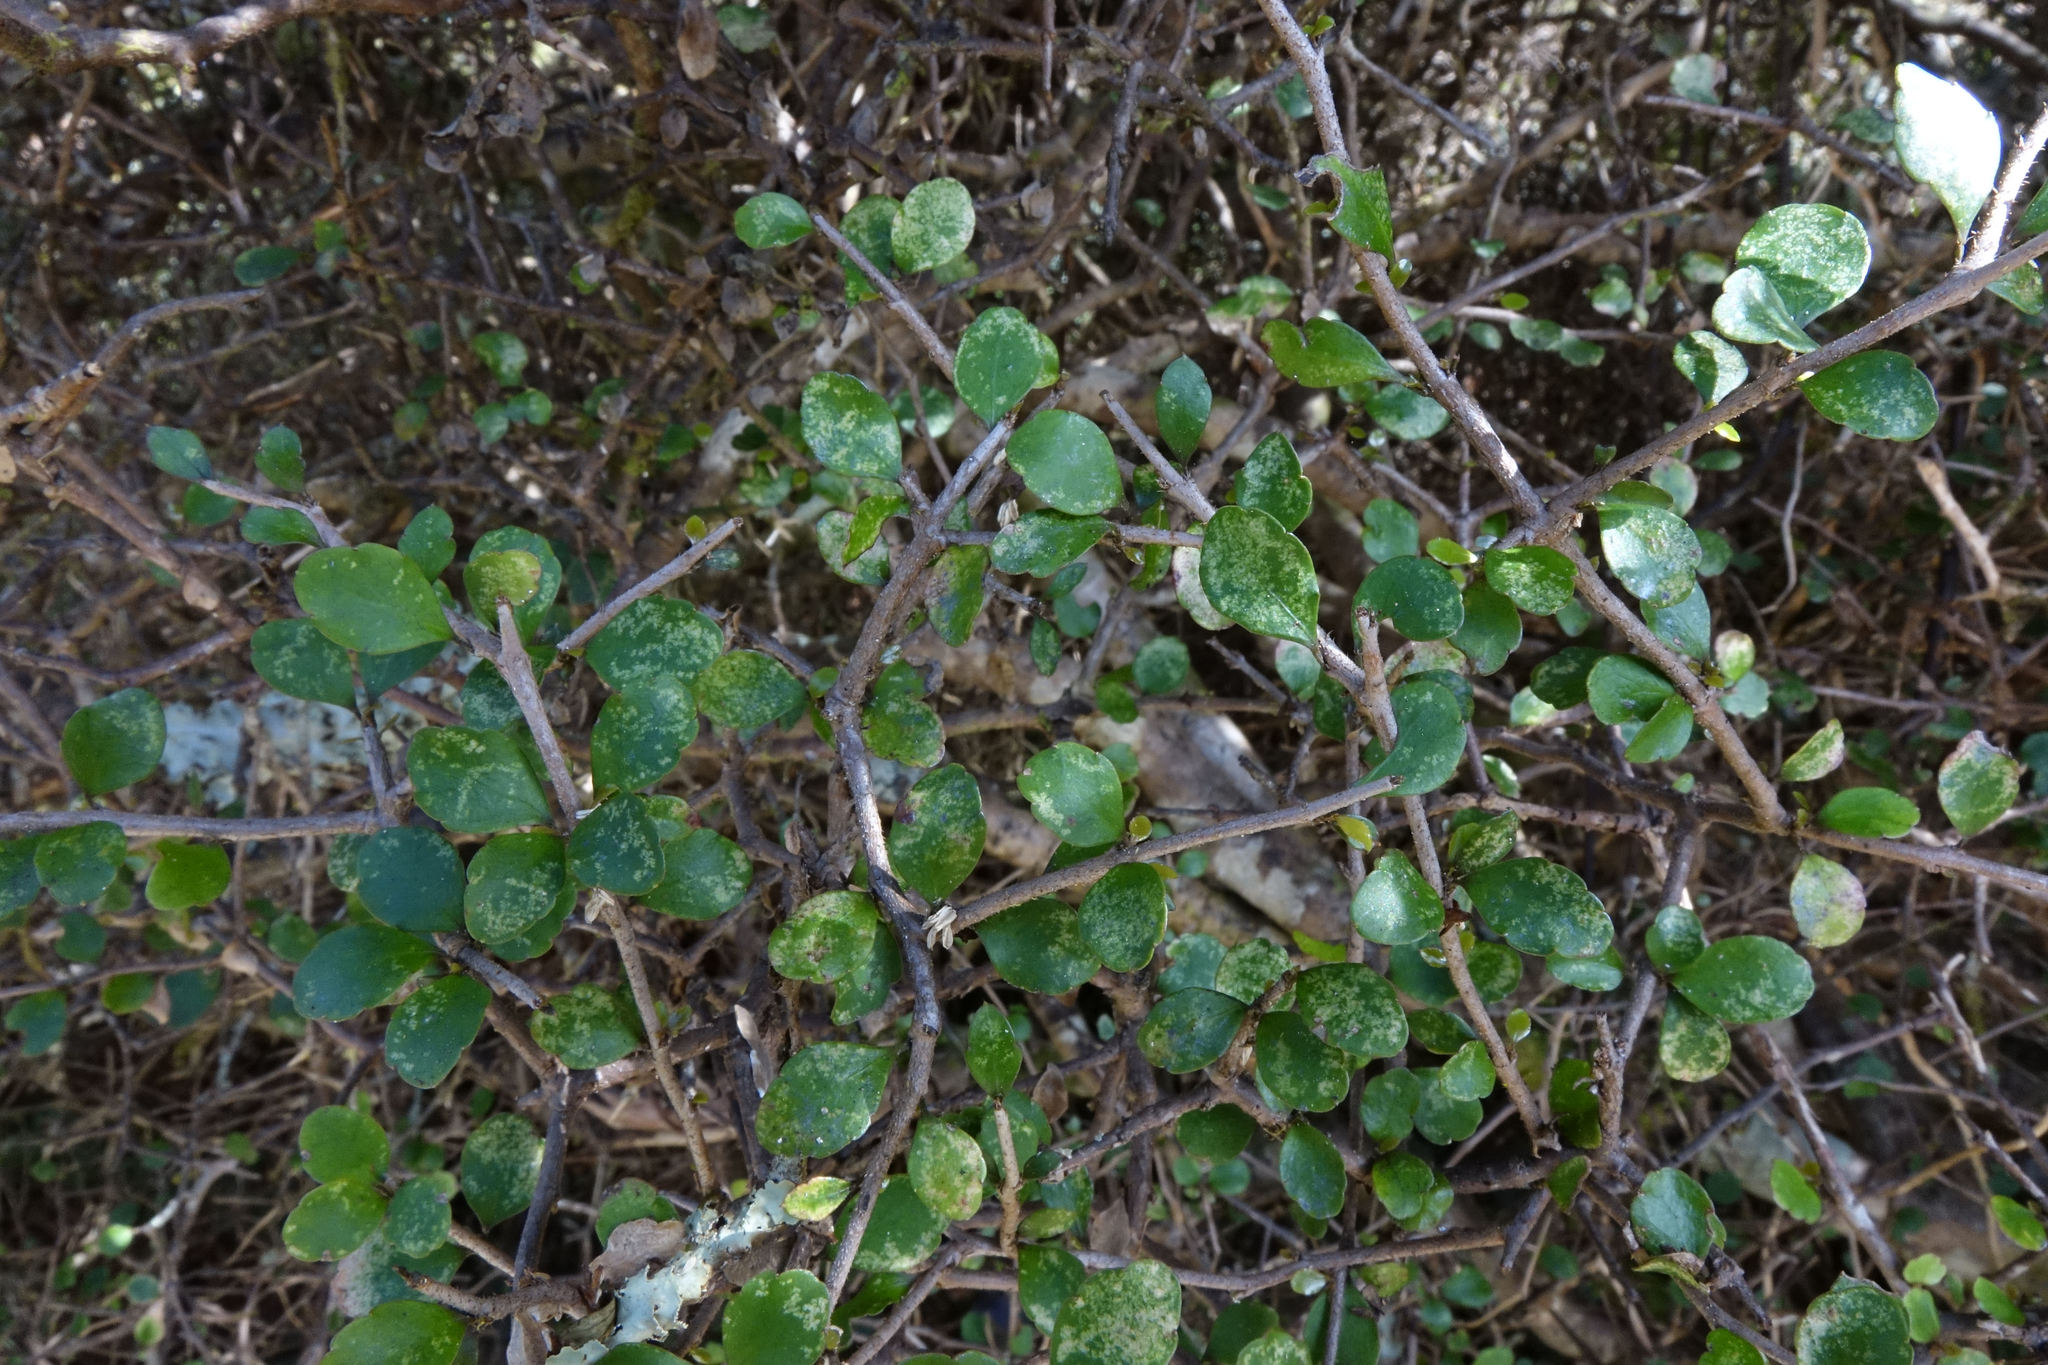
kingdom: Plantae
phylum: Tracheophyta
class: Magnoliopsida
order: Apiales
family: Araliaceae
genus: Raukaua
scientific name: Raukaua anomalus
